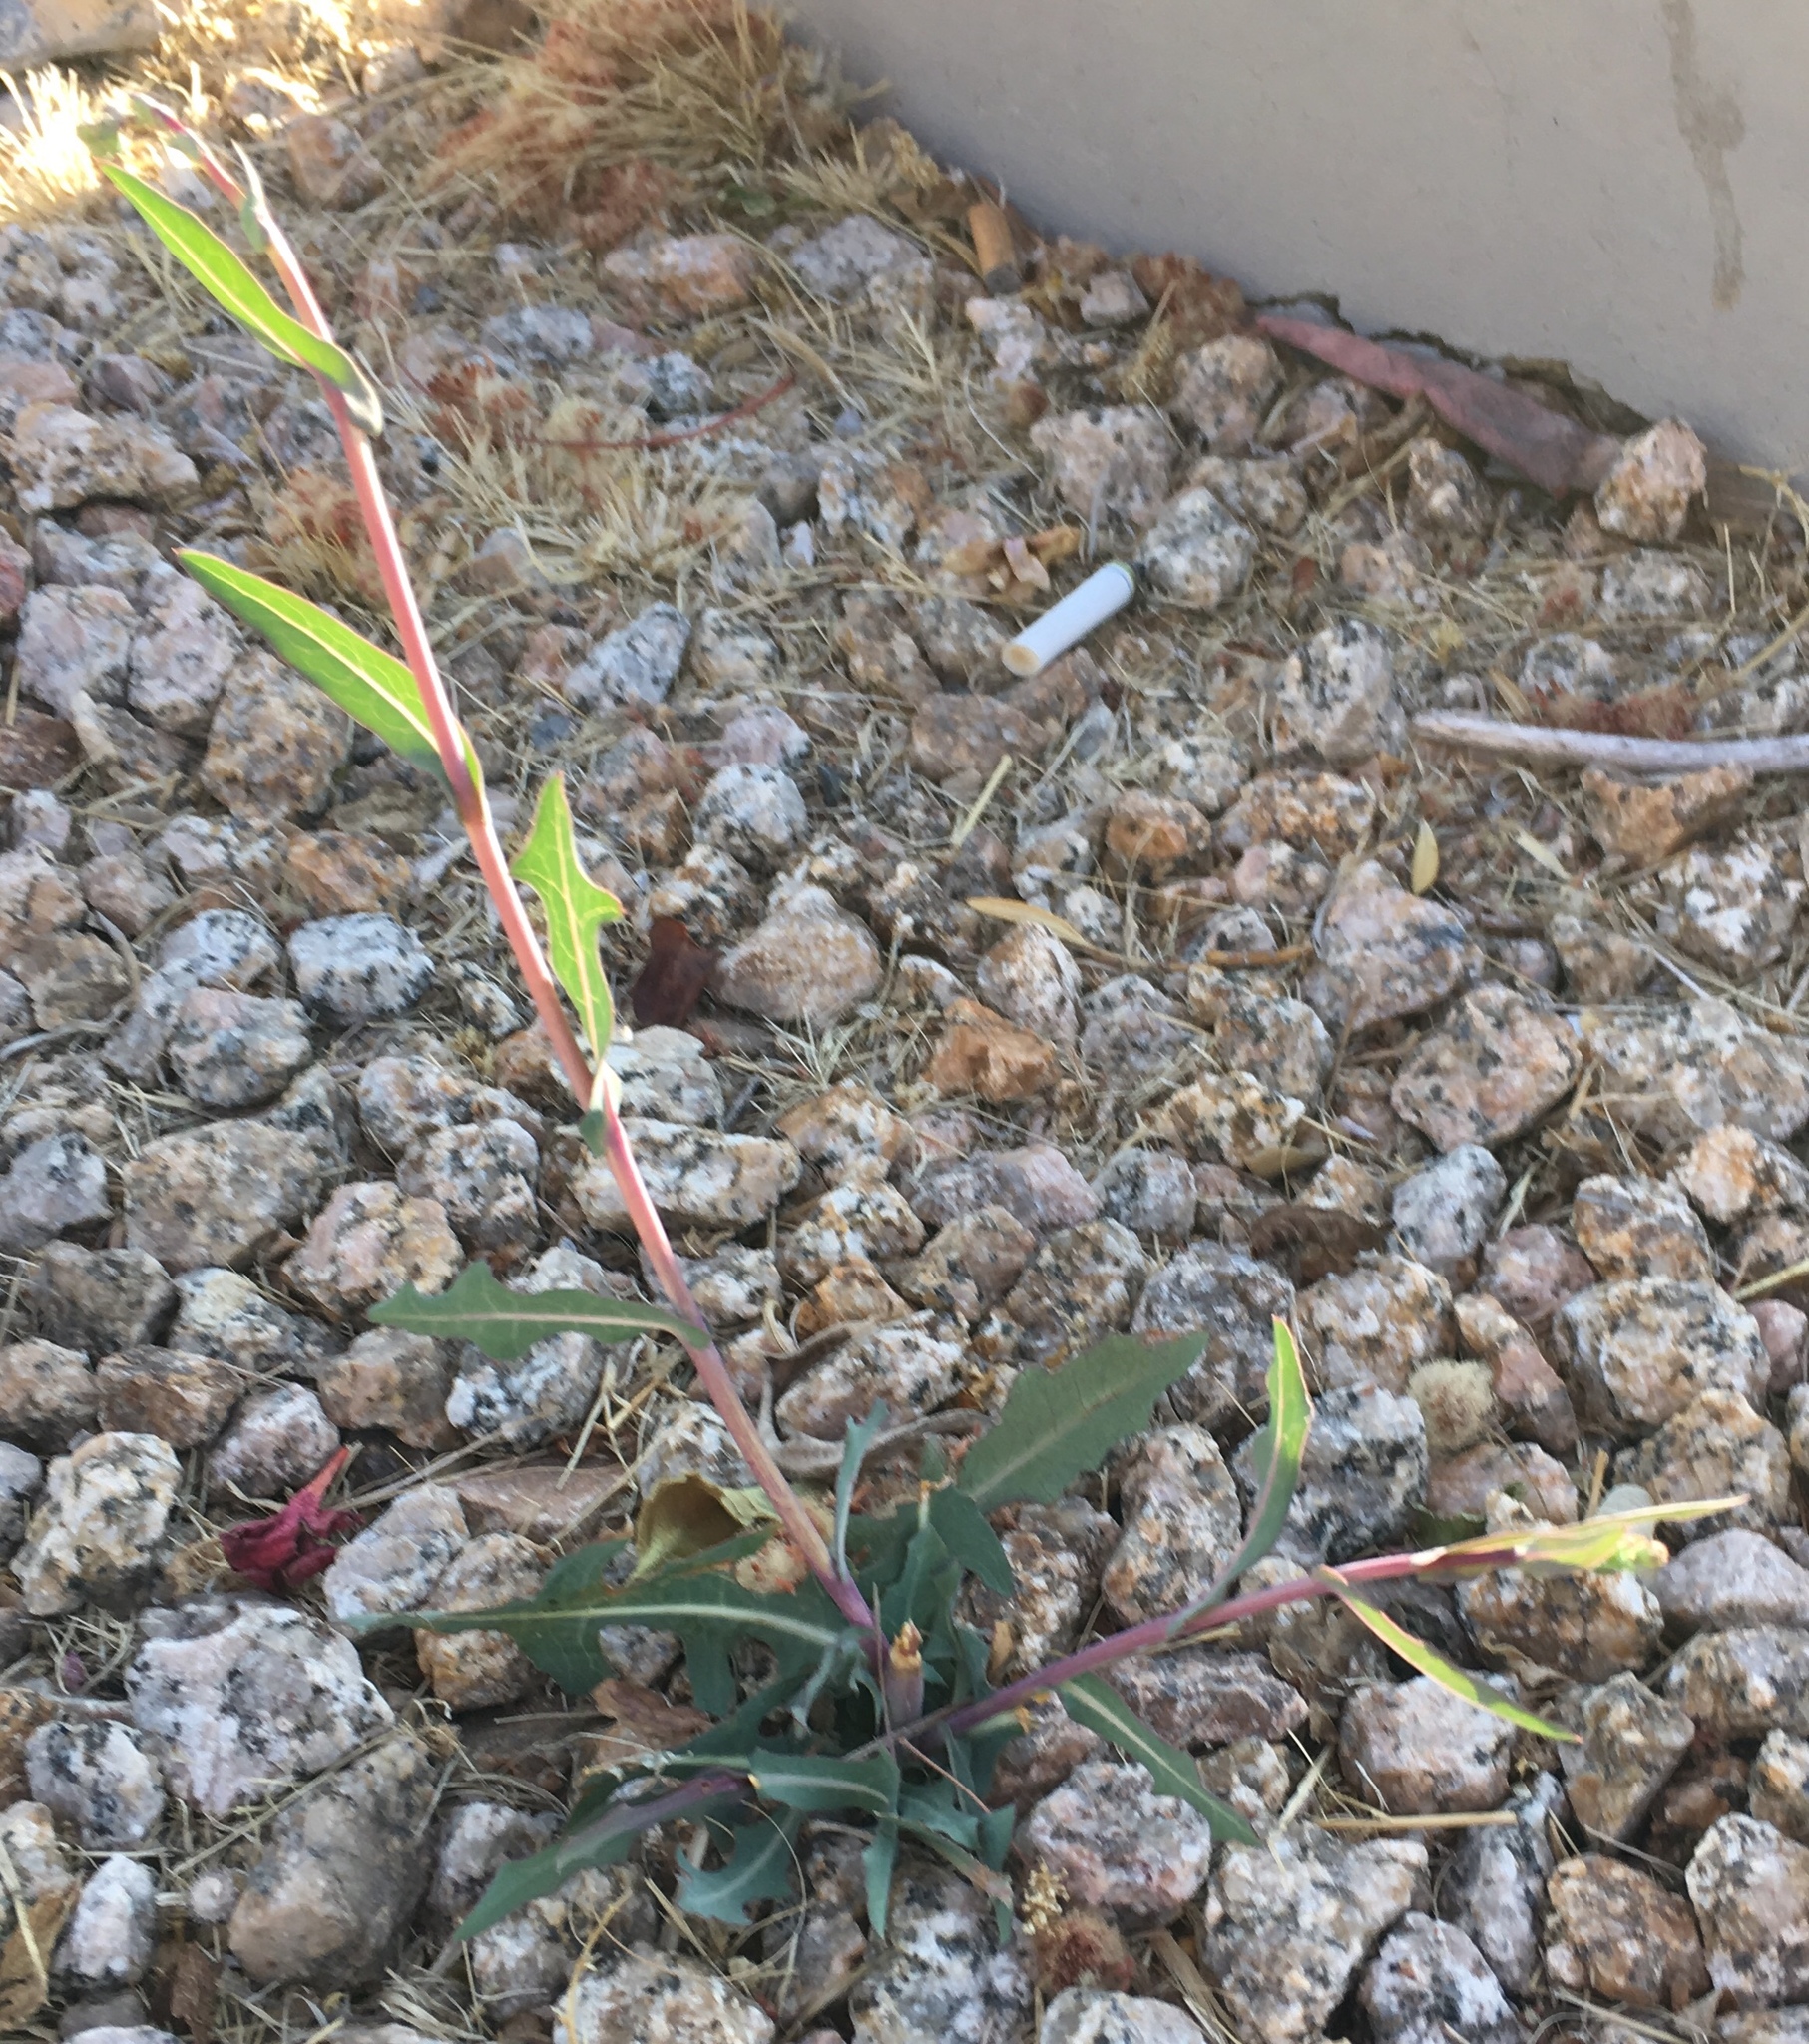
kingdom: Plantae
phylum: Tracheophyta
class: Magnoliopsida
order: Asterales
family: Asteraceae
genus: Lactuca
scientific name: Lactuca serriola
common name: Prickly lettuce
